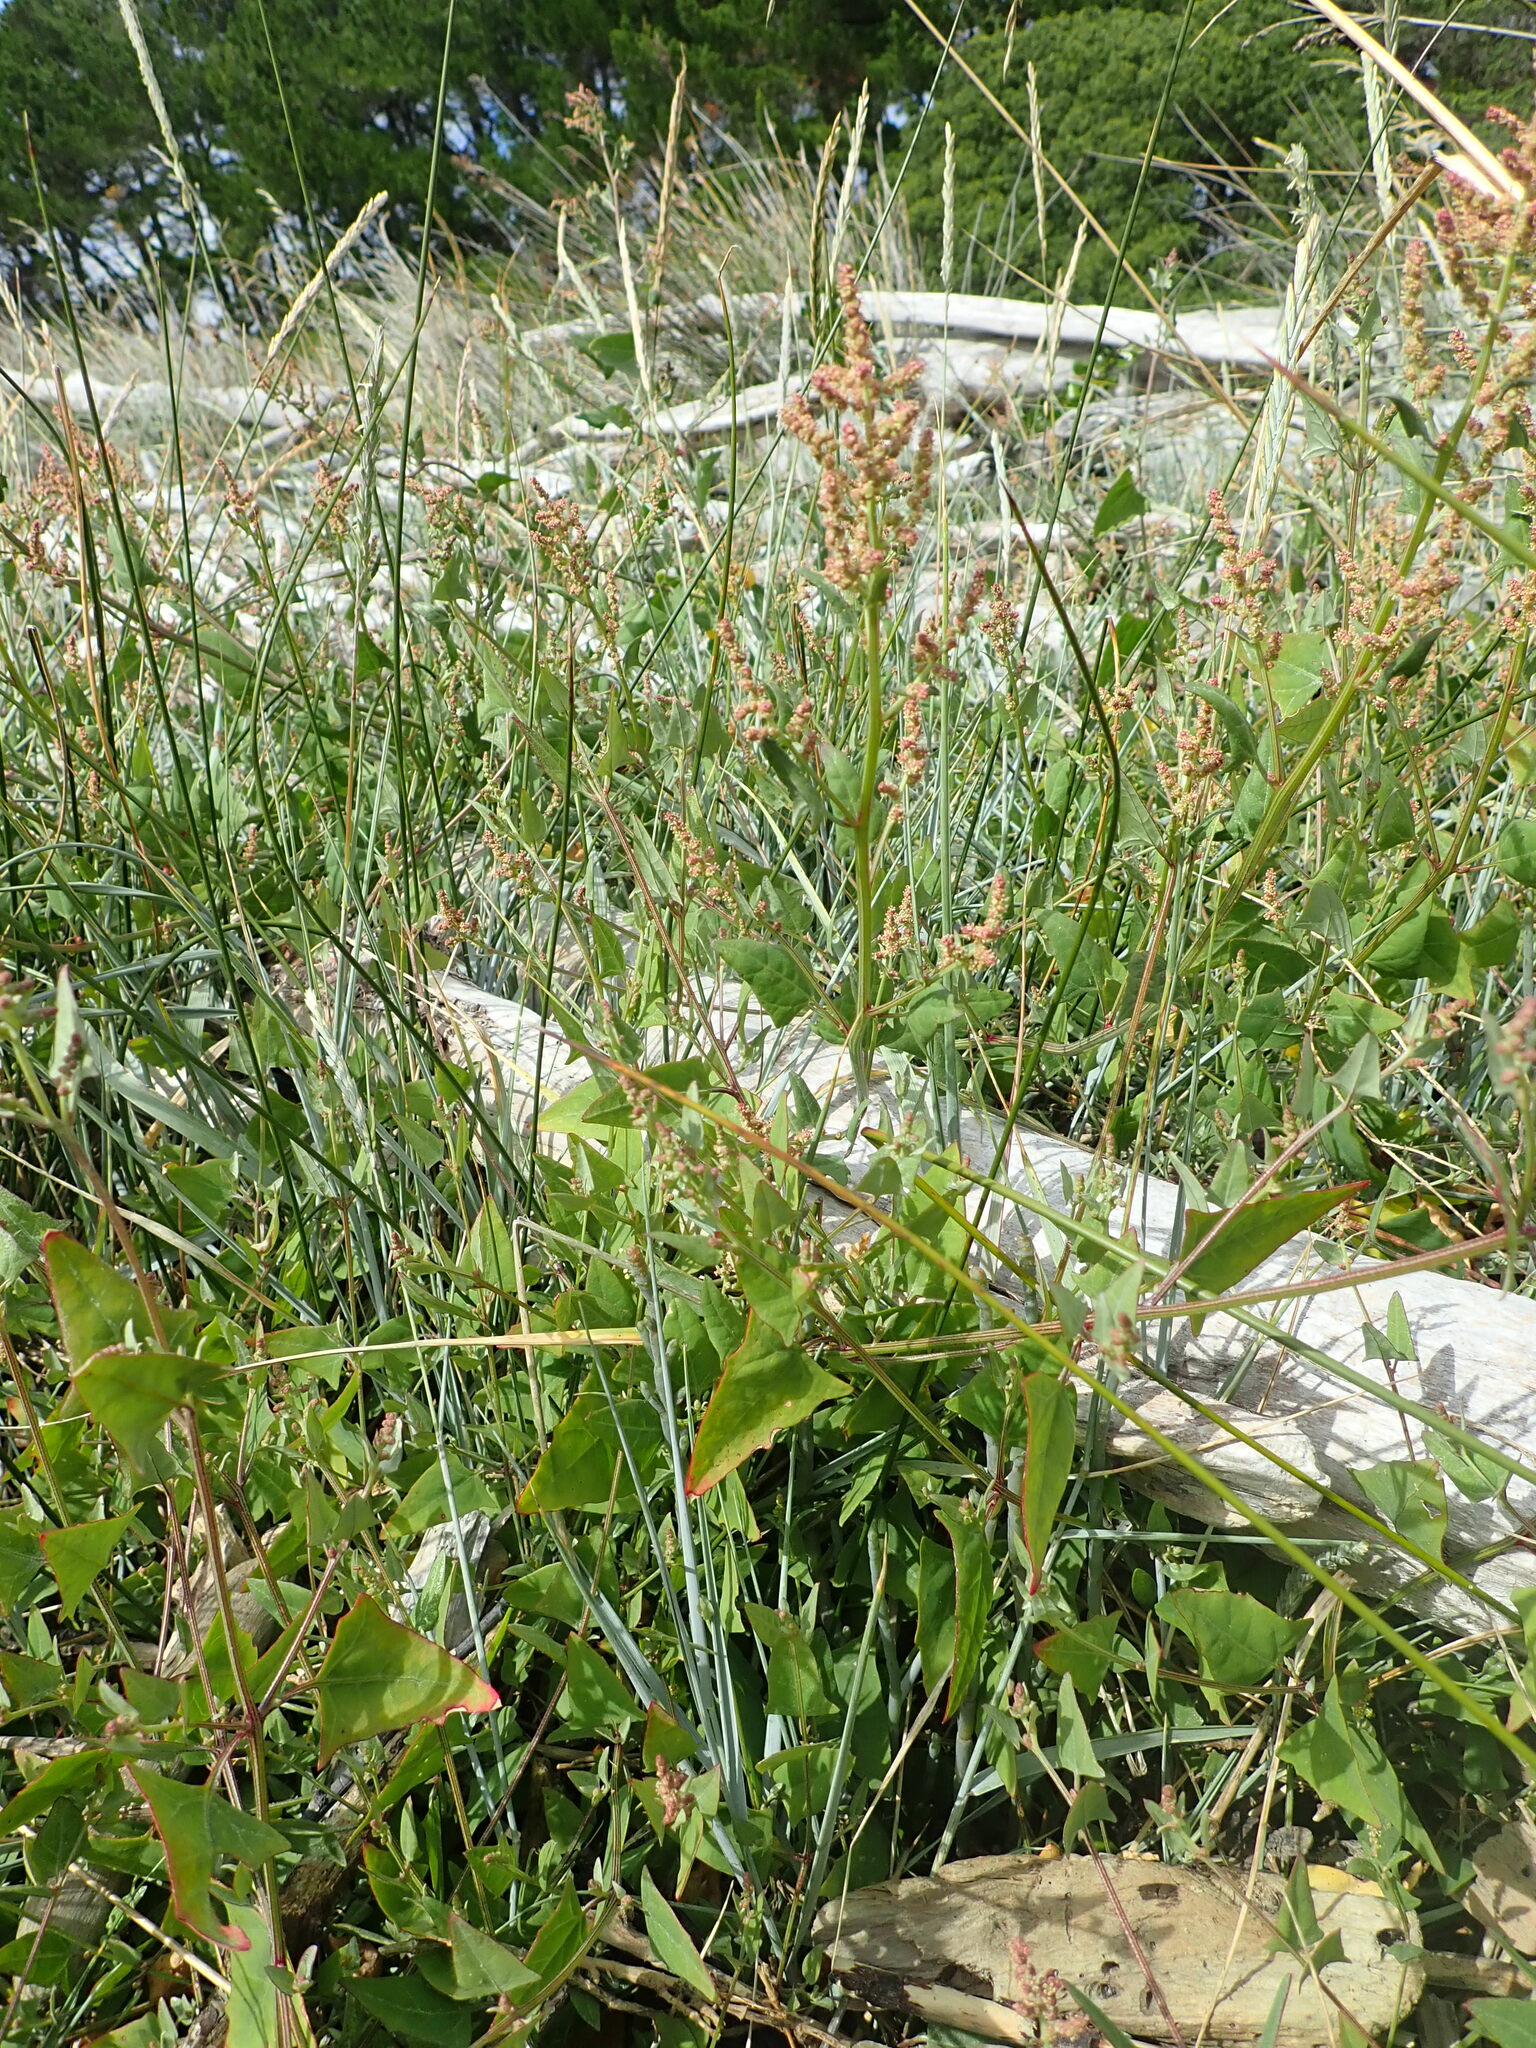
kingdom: Plantae
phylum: Tracheophyta
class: Magnoliopsida
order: Caryophyllales
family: Amaranthaceae
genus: Atriplex
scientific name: Atriplex prostrata
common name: Spear-leaved orache
